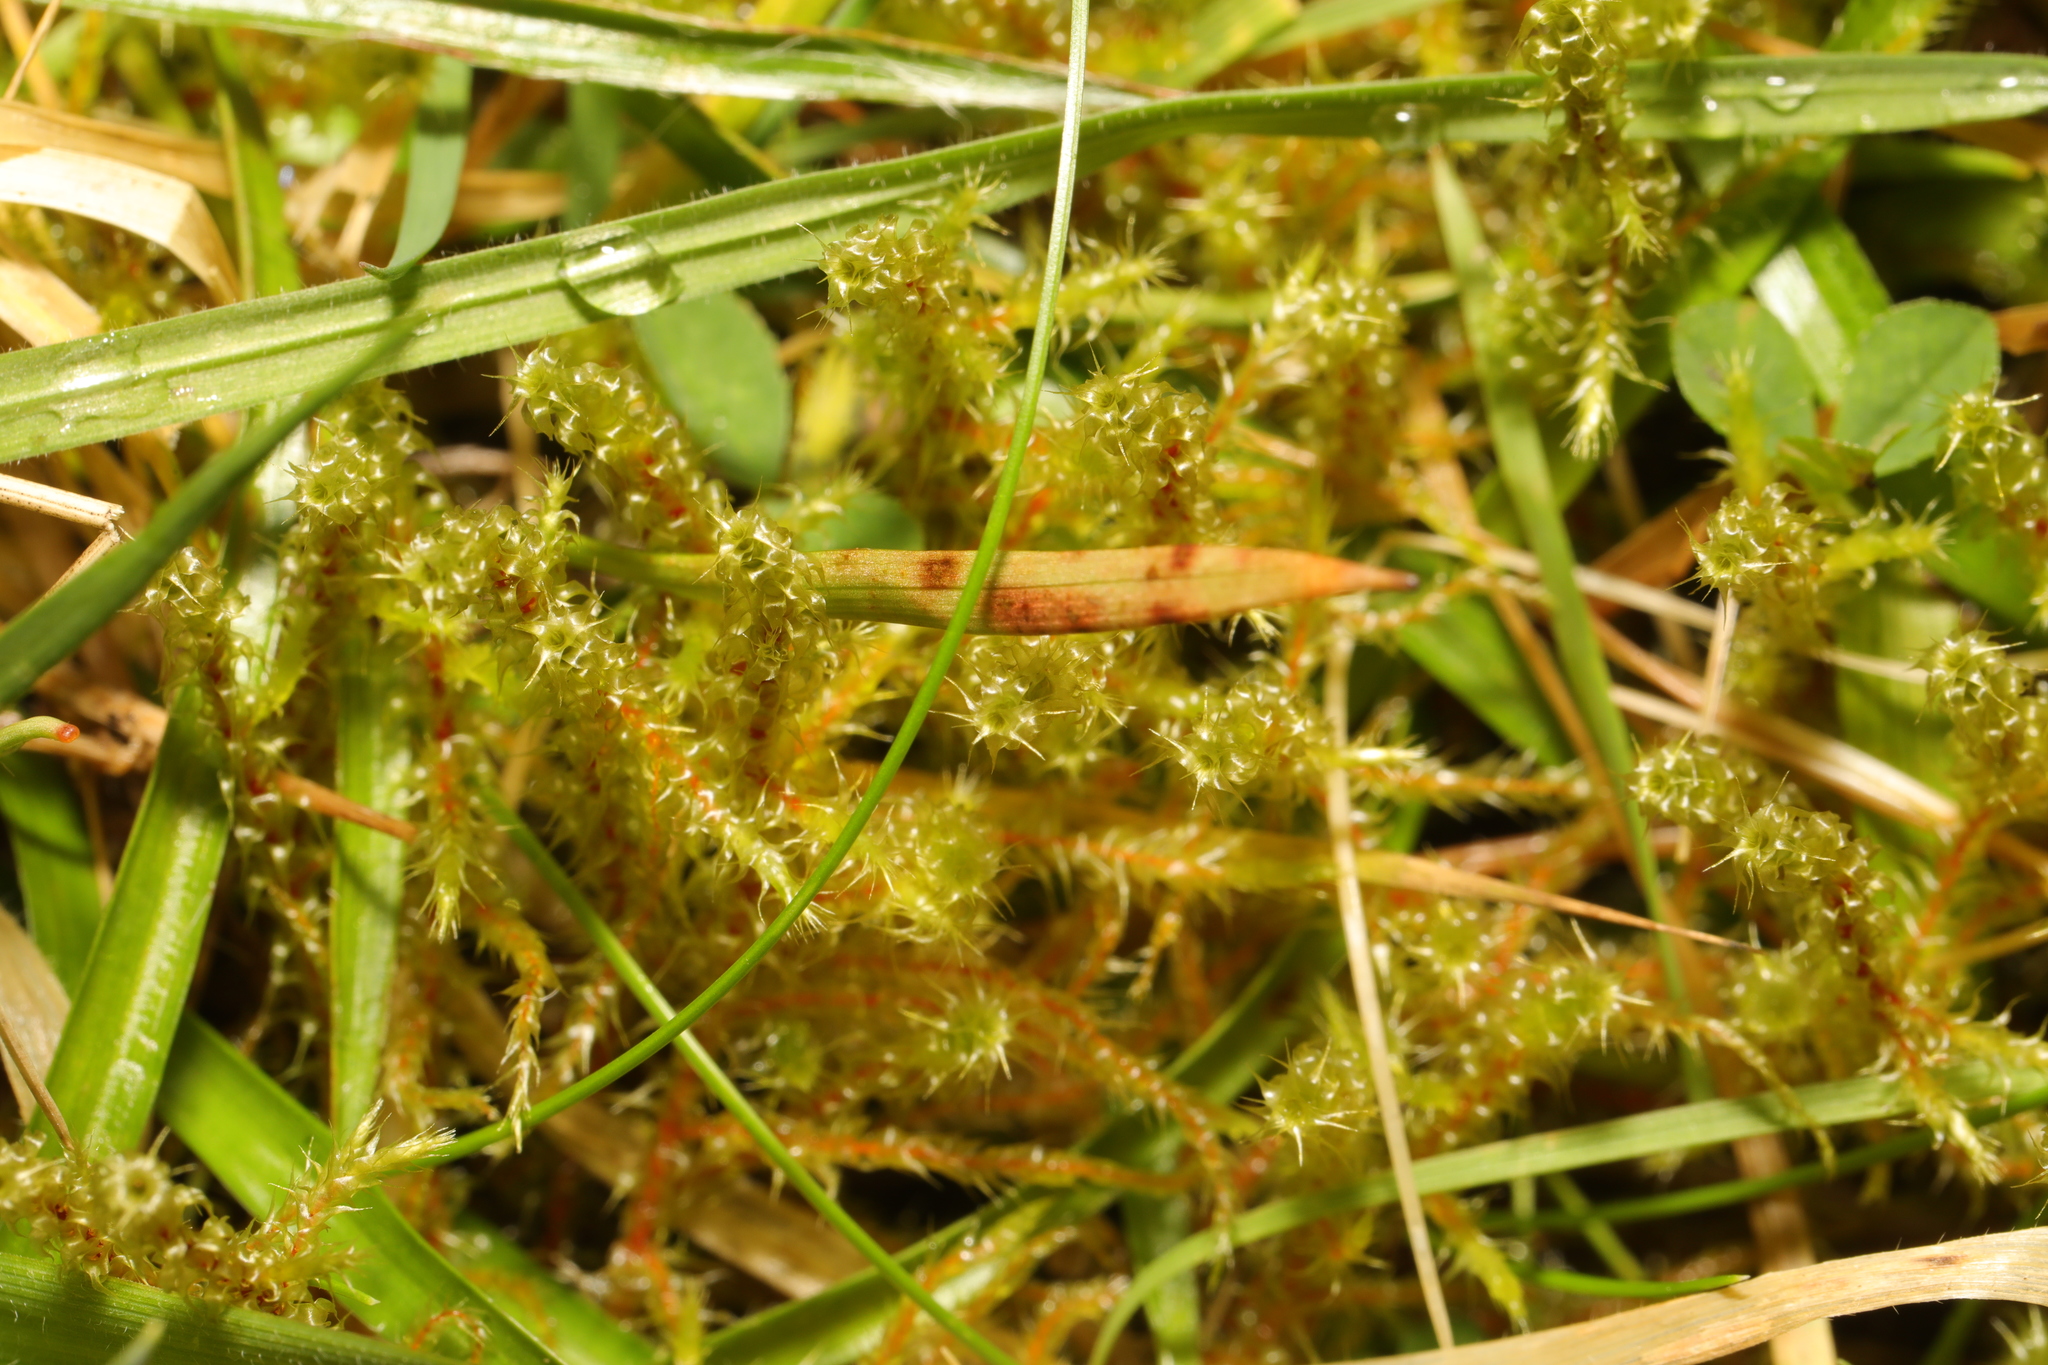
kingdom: Plantae
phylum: Bryophyta
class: Bryopsida
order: Hypnales
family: Hylocomiaceae
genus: Rhytidiadelphus
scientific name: Rhytidiadelphus squarrosus
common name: Springy turf-moss
